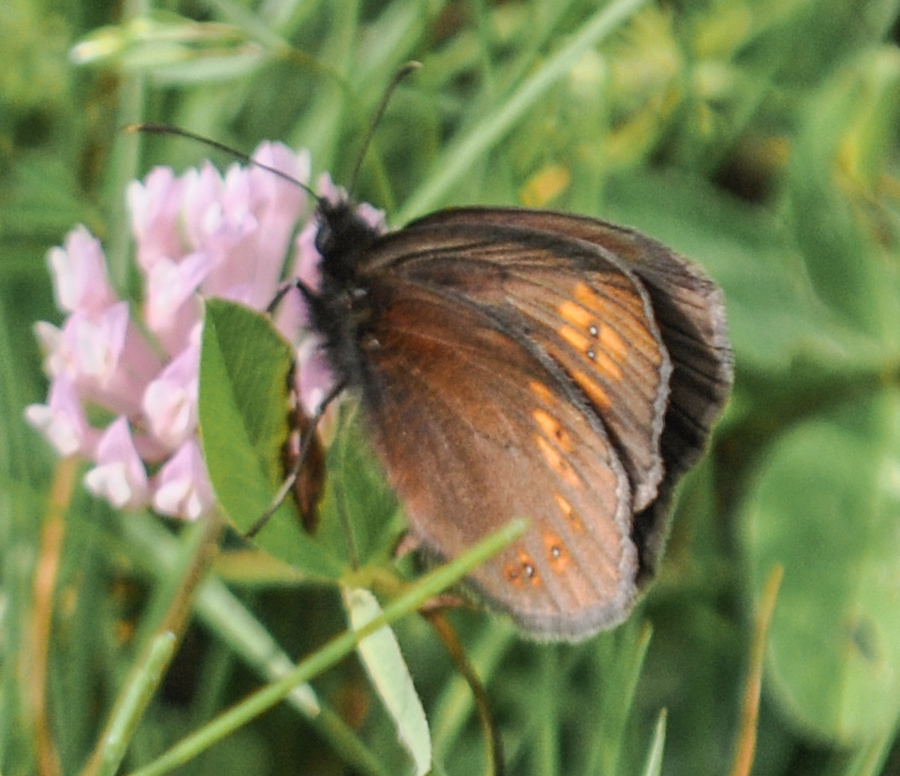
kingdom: Animalia
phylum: Arthropoda
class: Insecta
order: Lepidoptera
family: Nymphalidae
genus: Erebia
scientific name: Erebia alberganus
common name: Almond-eyed ringlet
